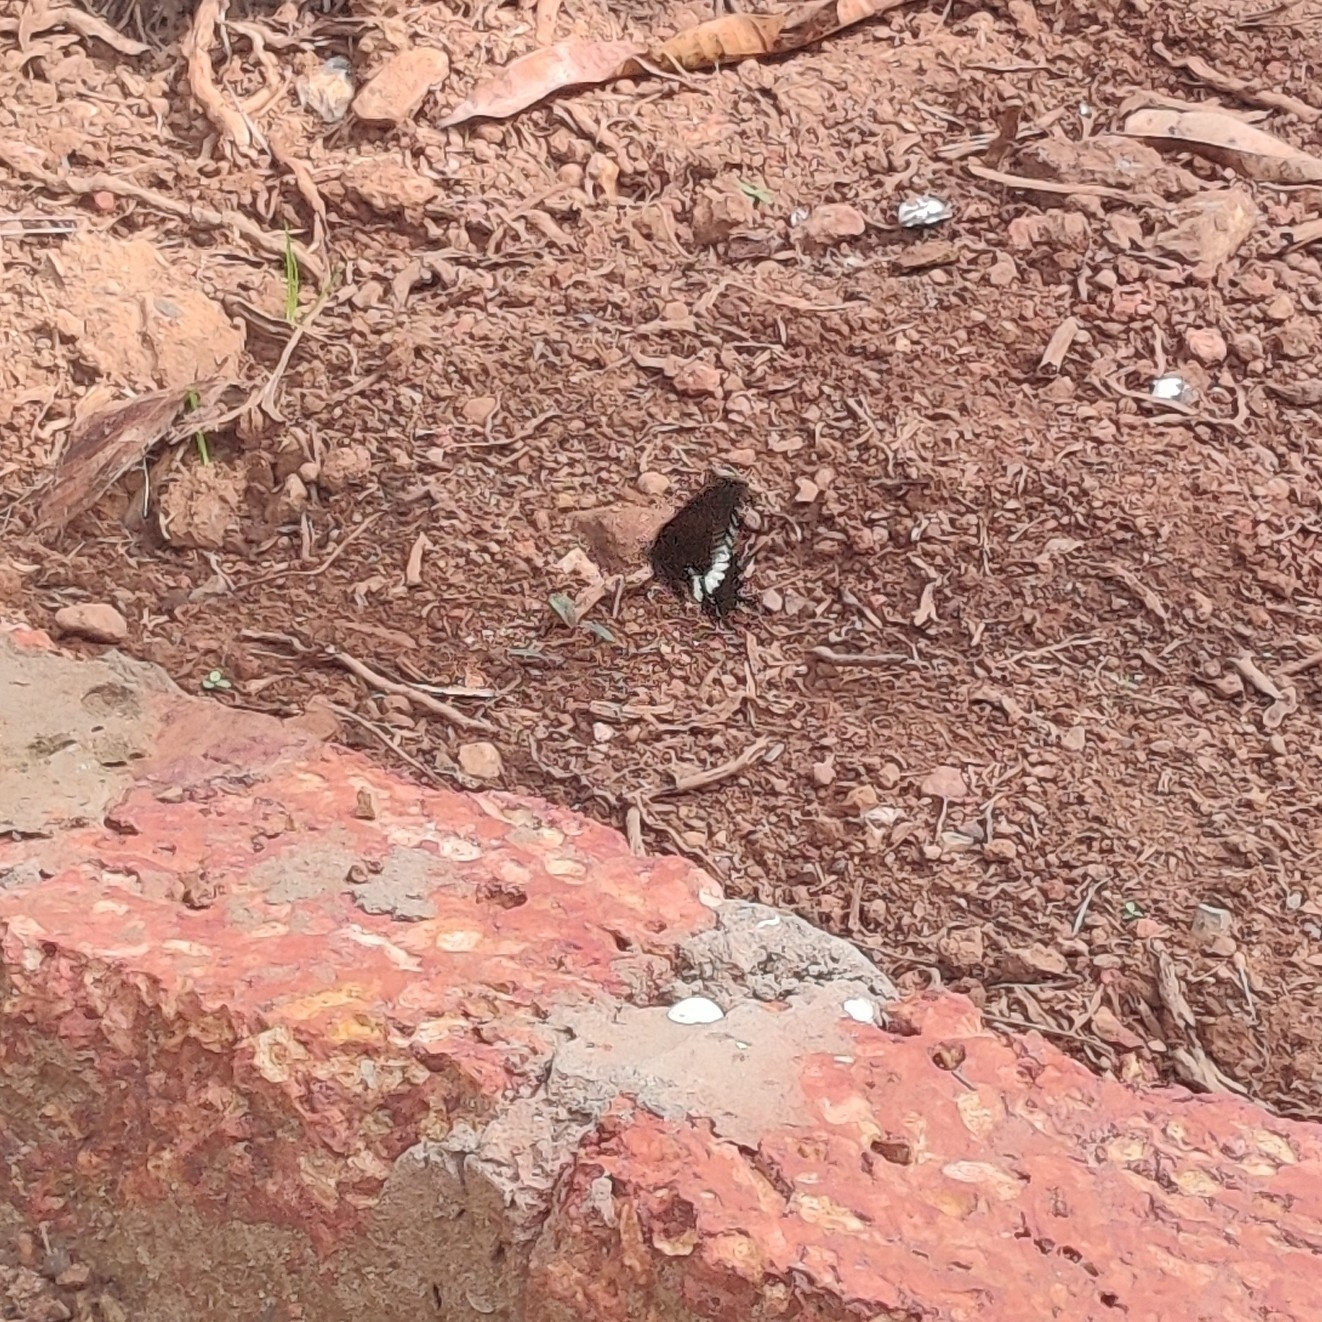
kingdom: Animalia
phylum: Arthropoda
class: Insecta
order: Lepidoptera
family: Papilionidae
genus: Papilio
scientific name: Papilio polytes
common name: Common mormon
